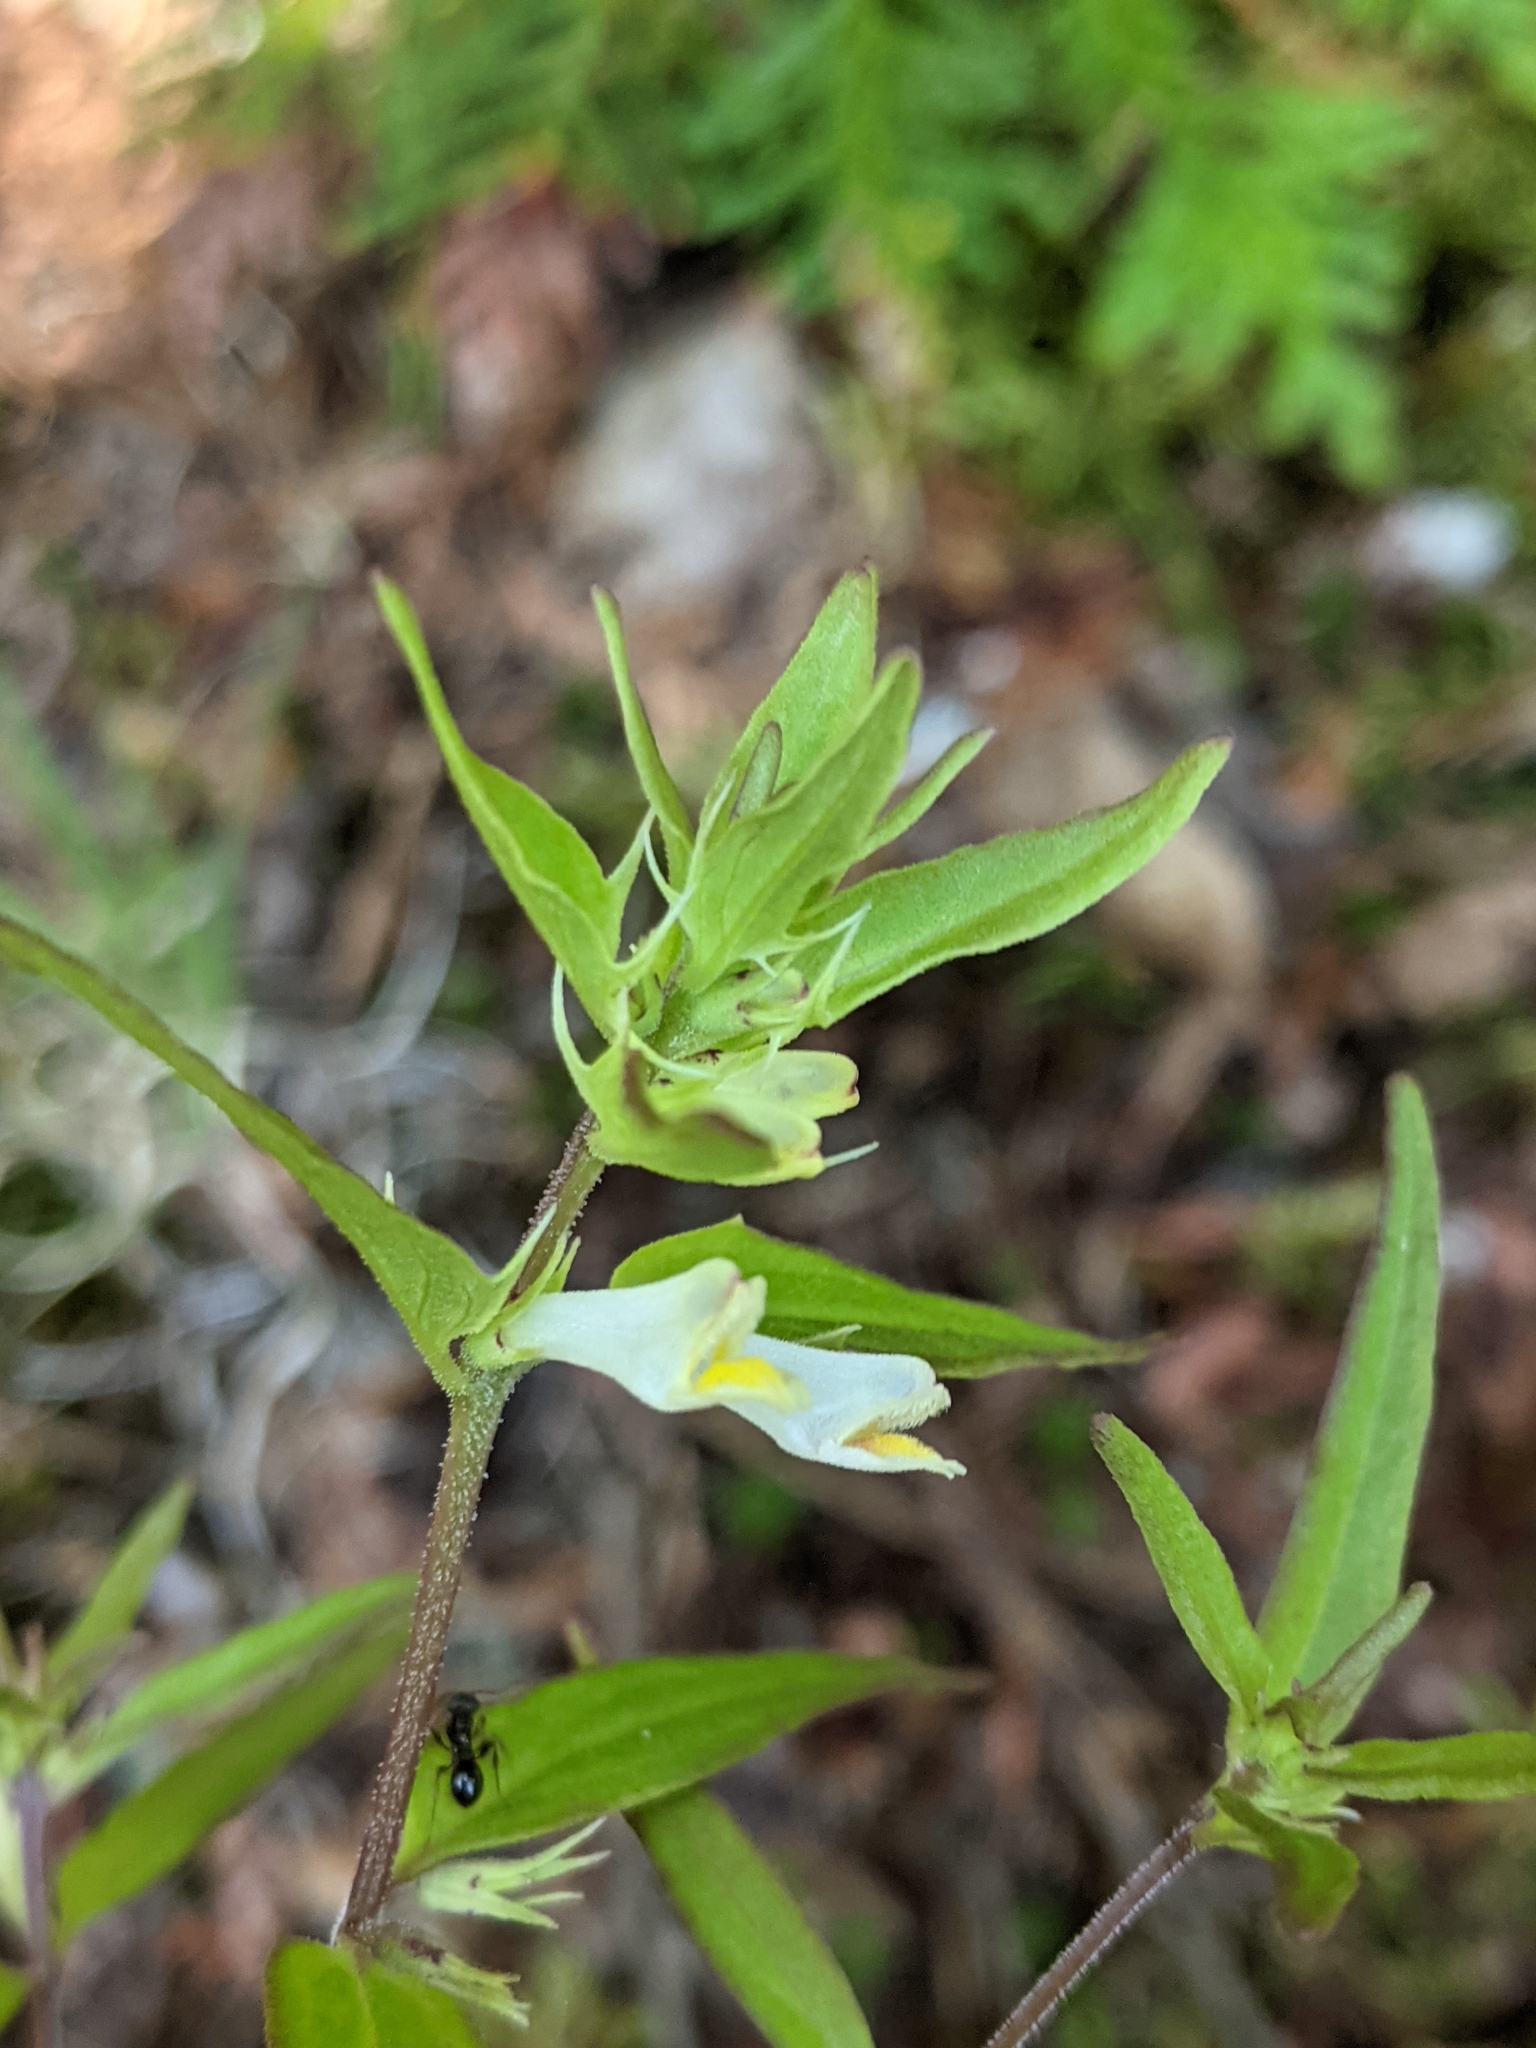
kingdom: Plantae
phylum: Tracheophyta
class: Magnoliopsida
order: Lamiales
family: Orobanchaceae
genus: Melampyrum
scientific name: Melampyrum lineare
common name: American cow-wheat
